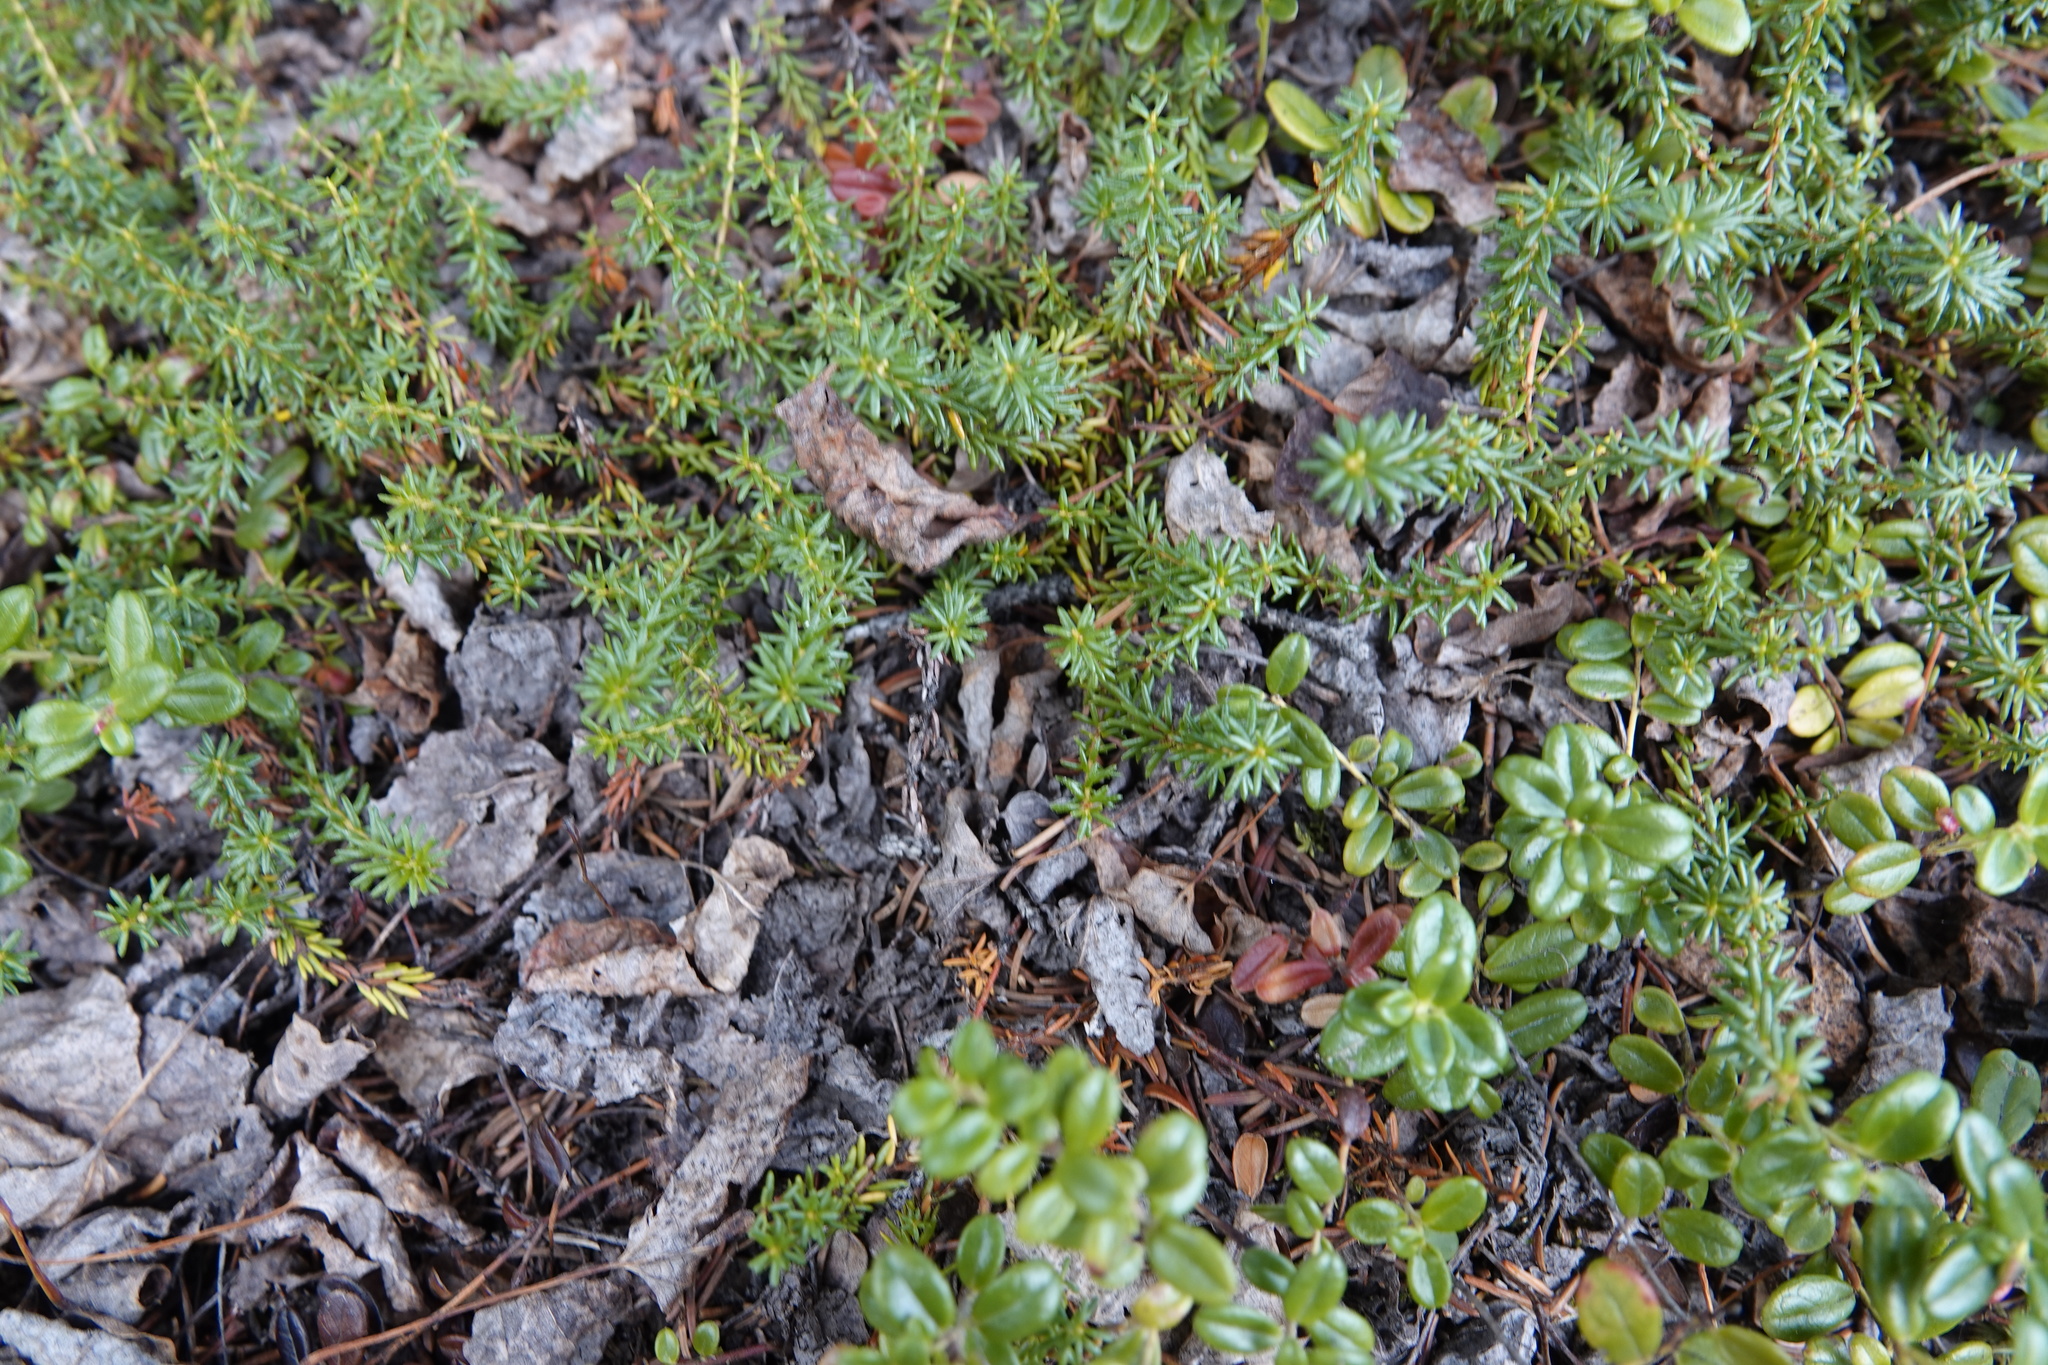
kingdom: Plantae
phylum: Tracheophyta
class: Magnoliopsida
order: Ericales
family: Ericaceae
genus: Empetrum
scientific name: Empetrum nigrum
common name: Black crowberry
